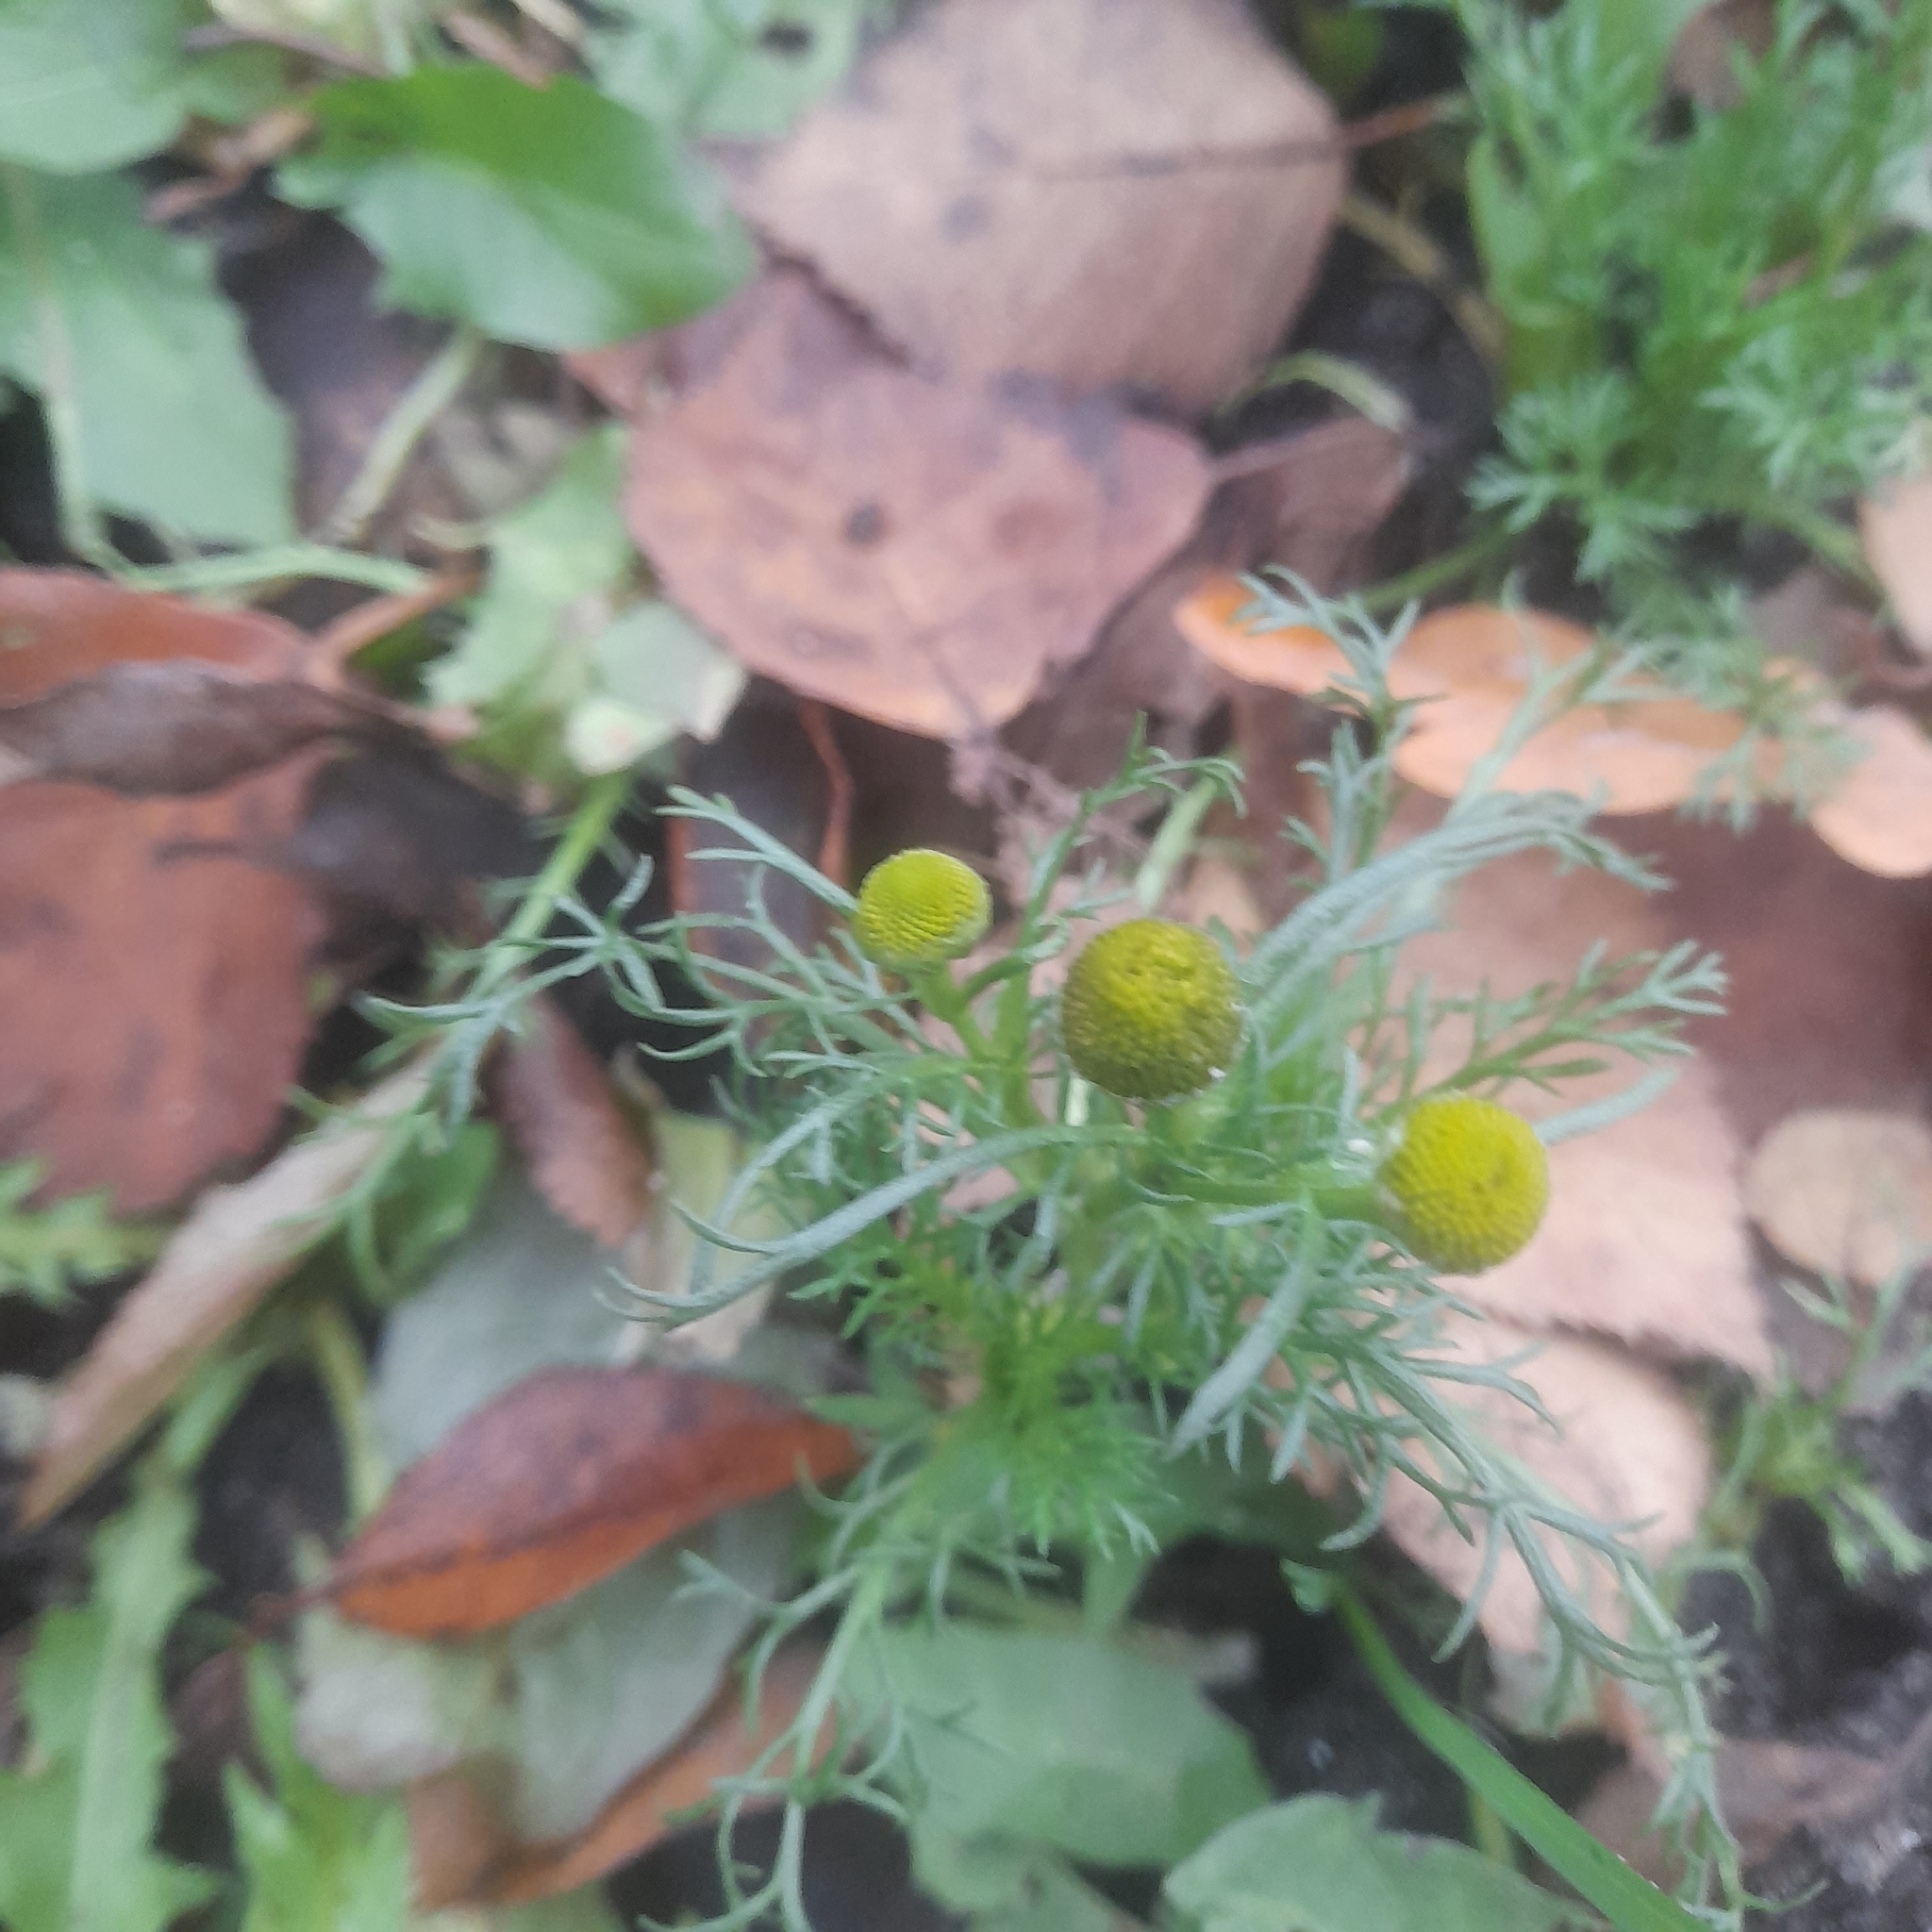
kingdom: Plantae
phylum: Tracheophyta
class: Magnoliopsida
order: Asterales
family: Asteraceae
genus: Matricaria
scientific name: Matricaria discoidea
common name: Disc mayweed
